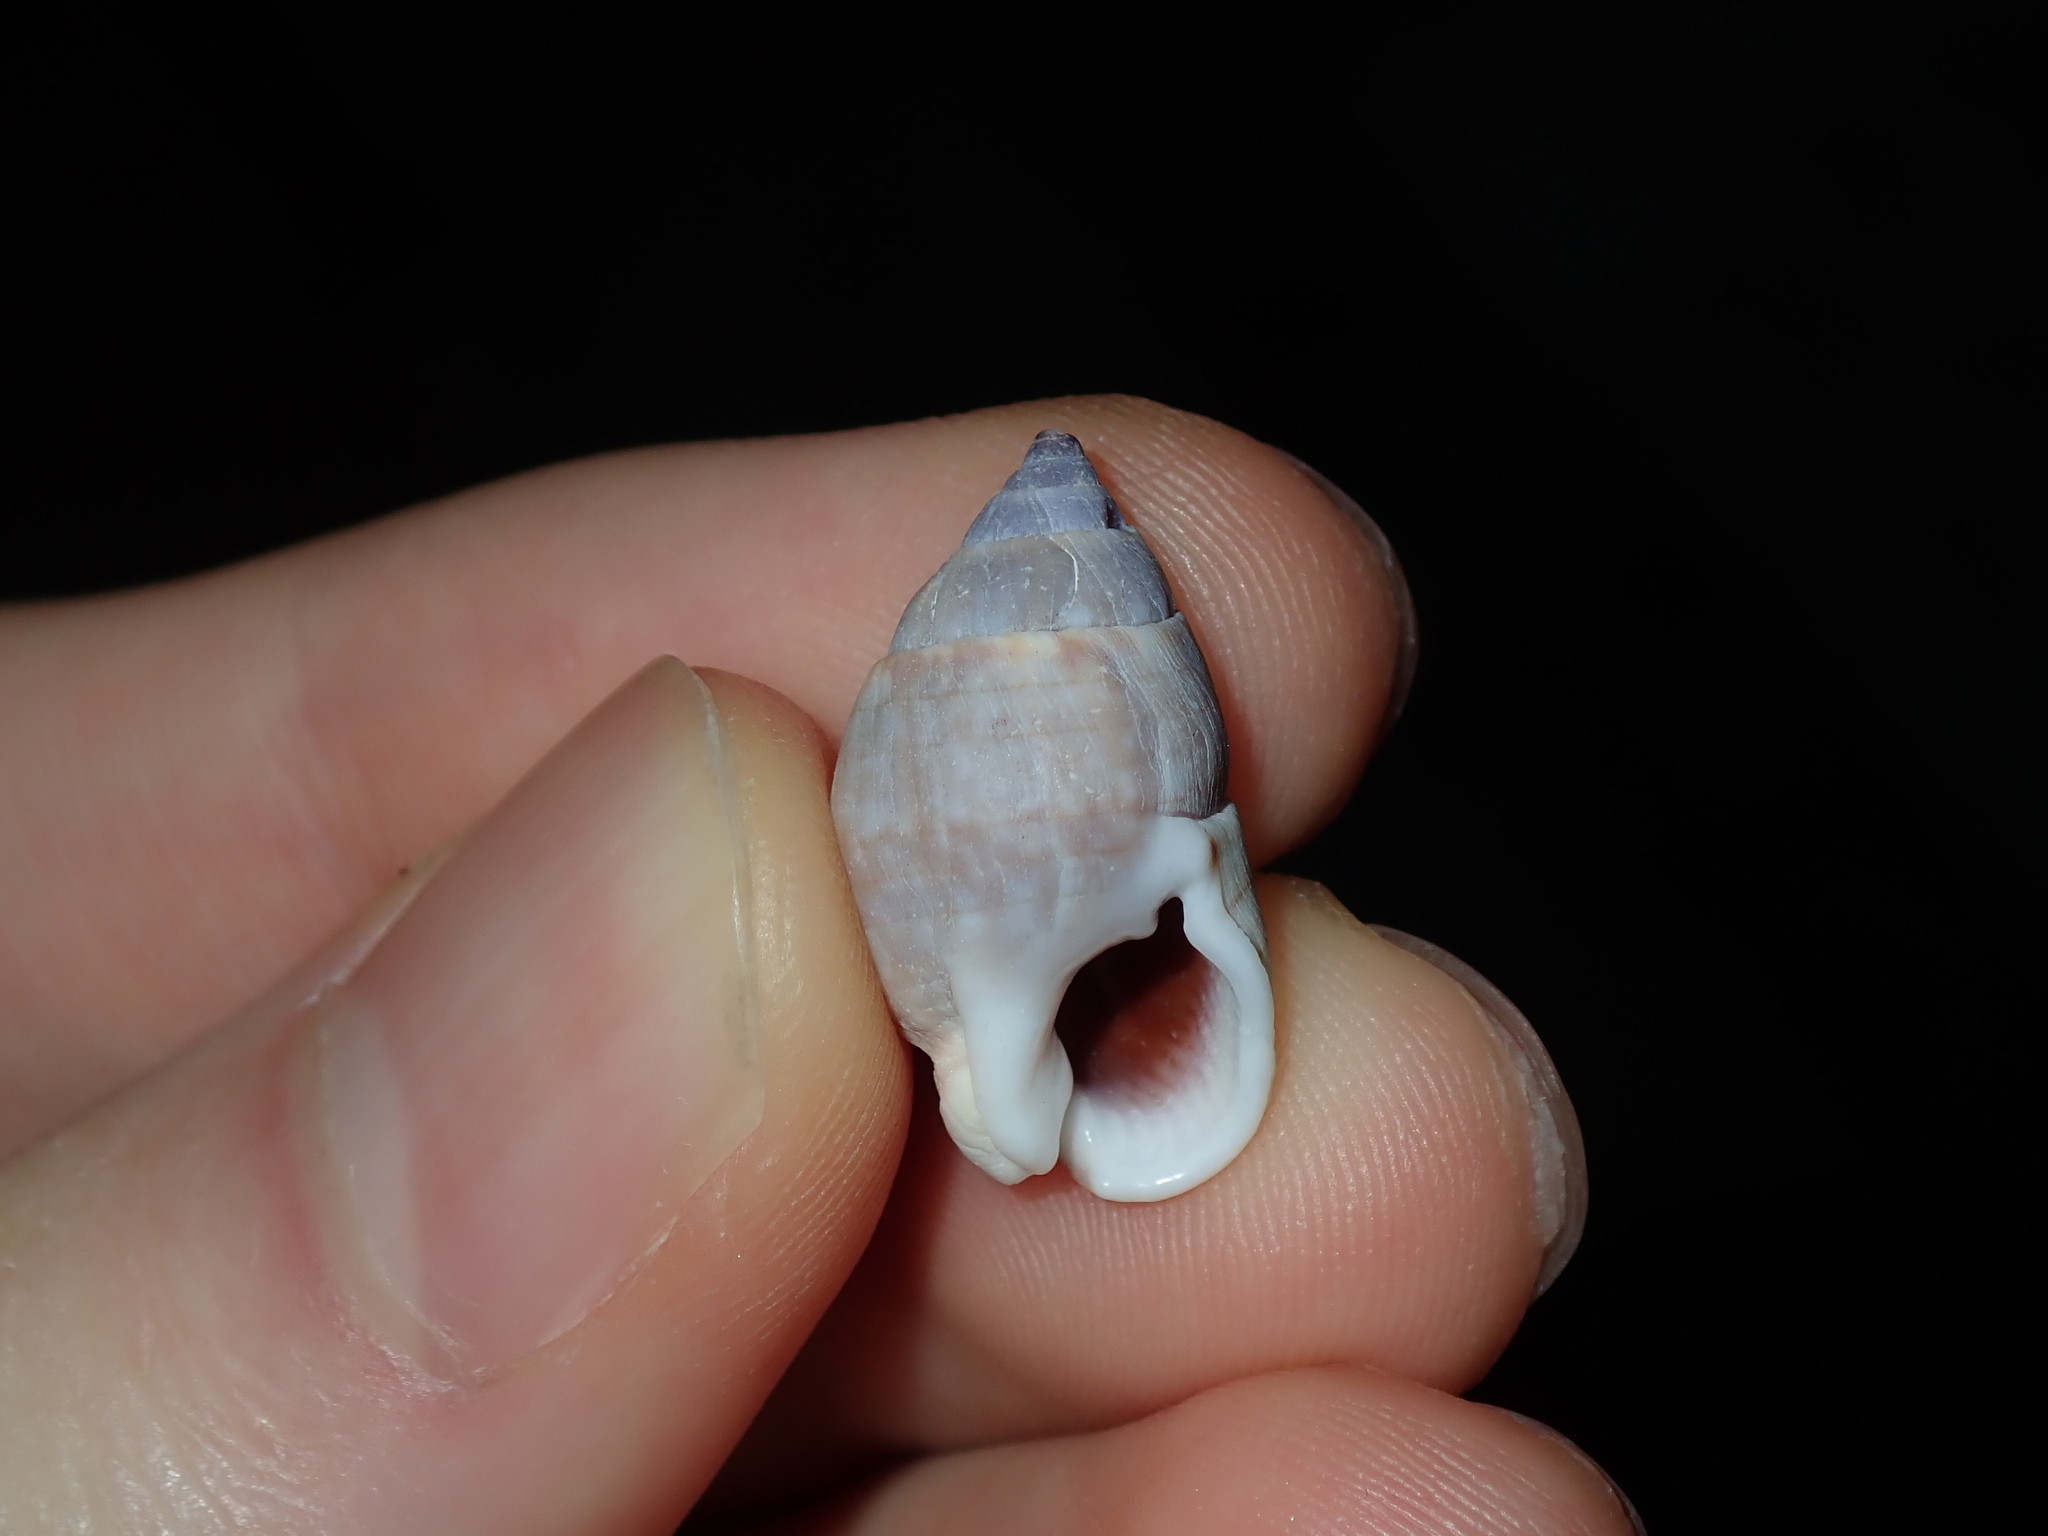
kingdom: Animalia
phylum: Mollusca
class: Gastropoda
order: Neogastropoda
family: Nassariidae
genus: Nassarius
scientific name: Nassarius gaudiosus
